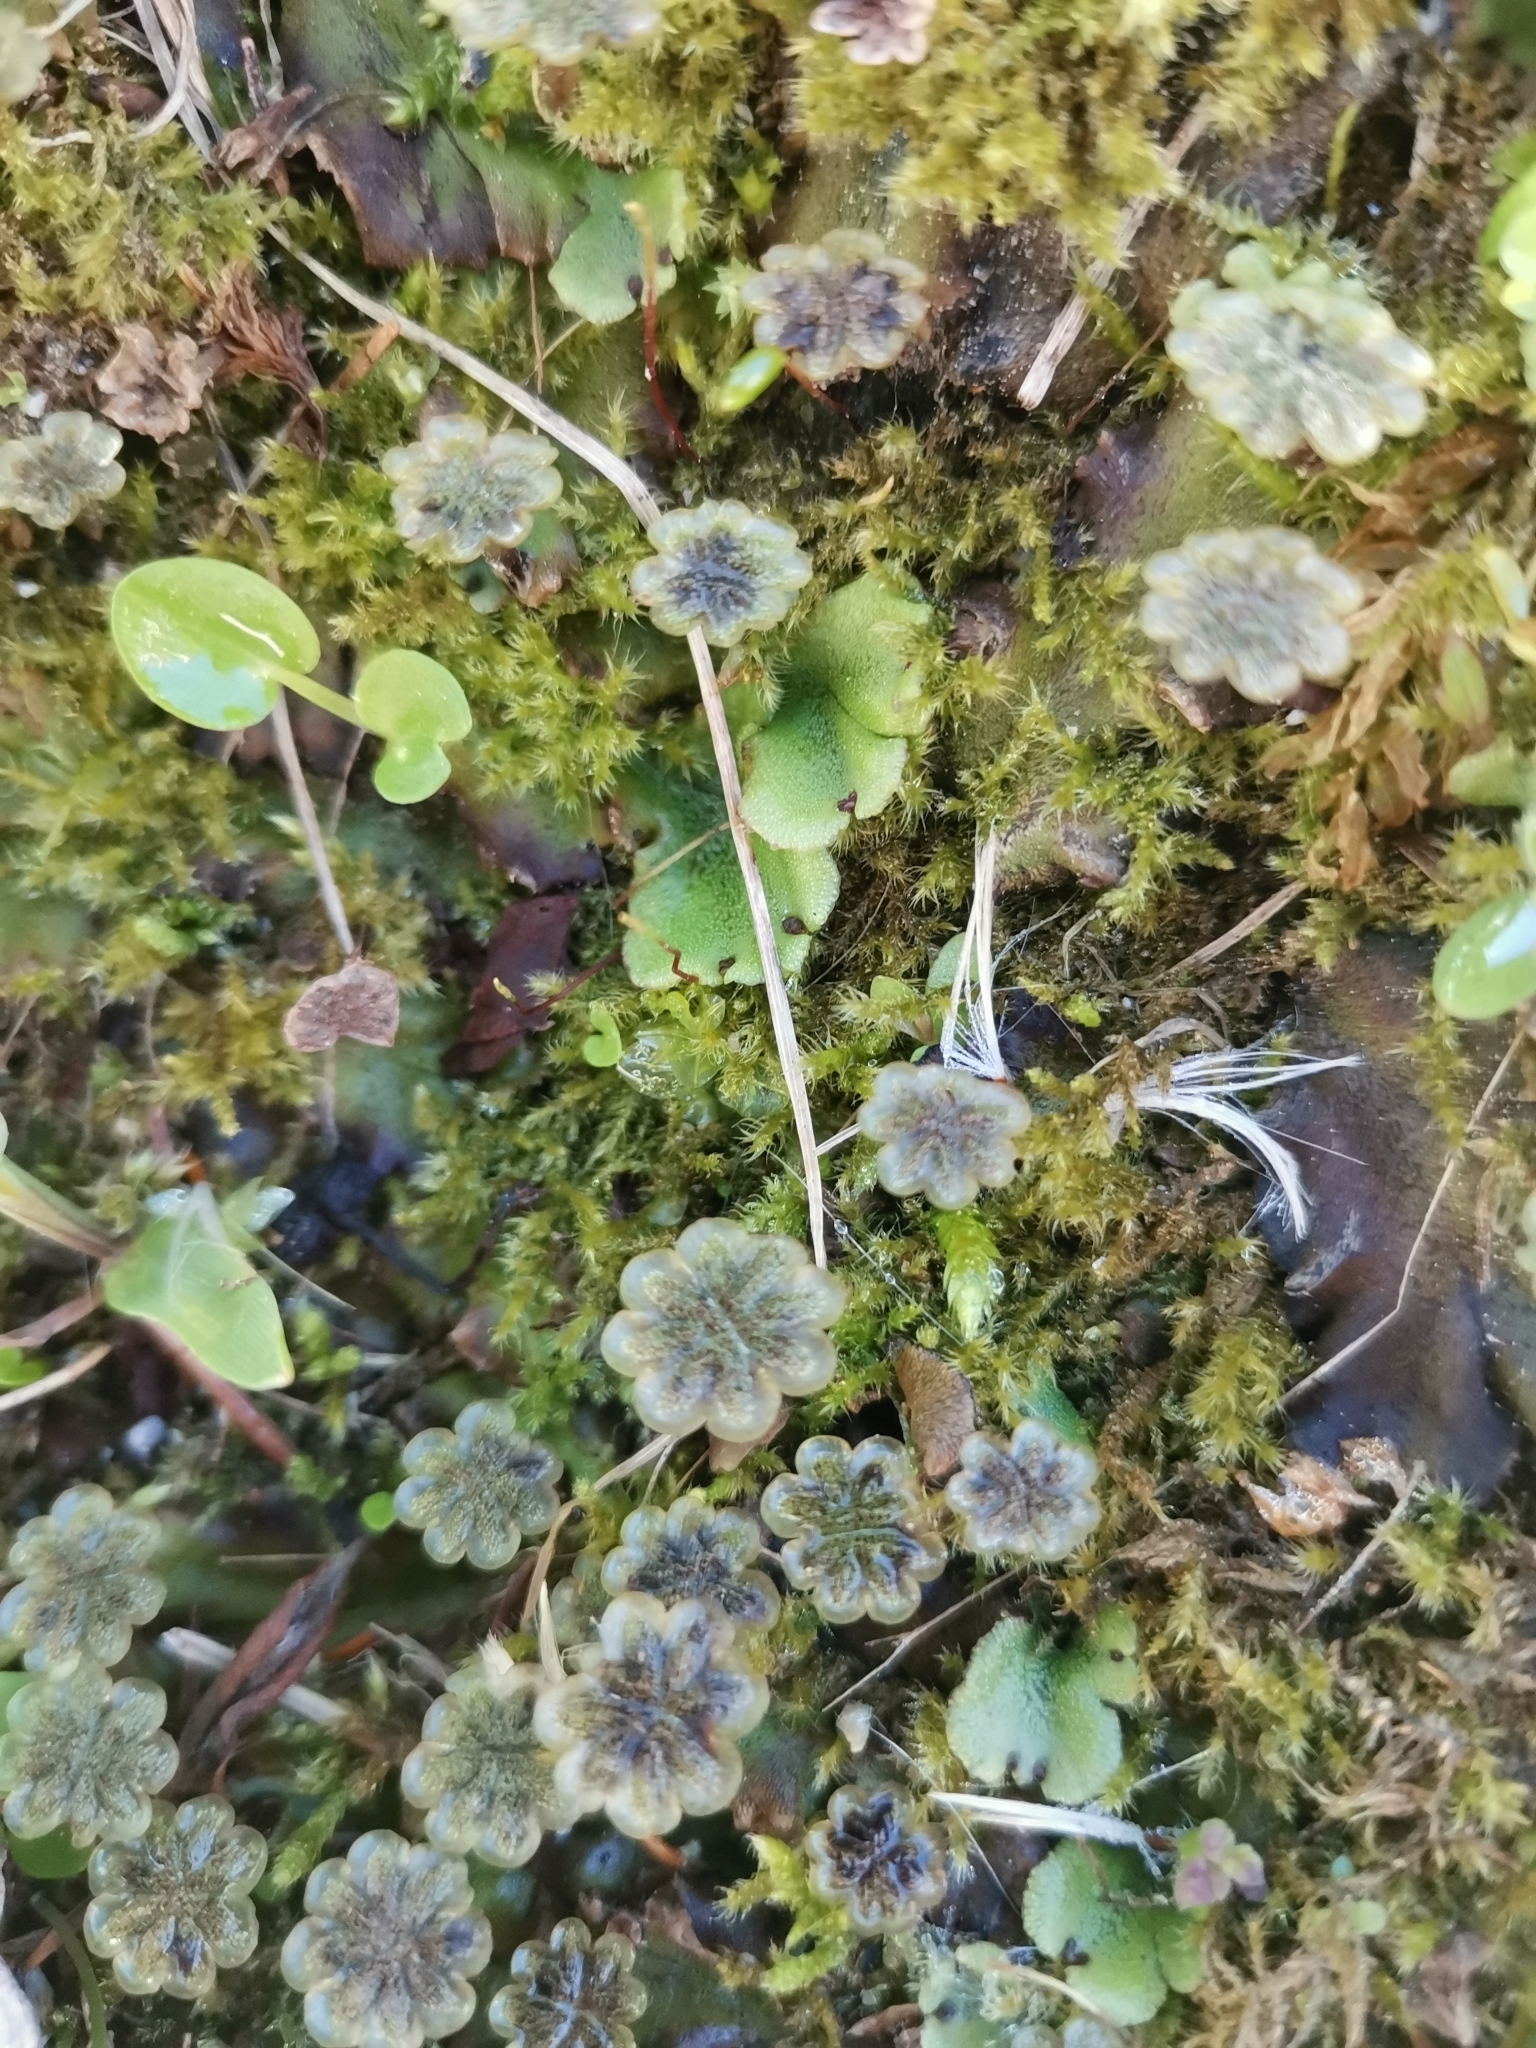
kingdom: Plantae
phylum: Marchantiophyta
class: Marchantiopsida
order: Marchantiales
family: Marchantiaceae
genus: Marchantia
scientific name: Marchantia polymorpha
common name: Common liverwort
